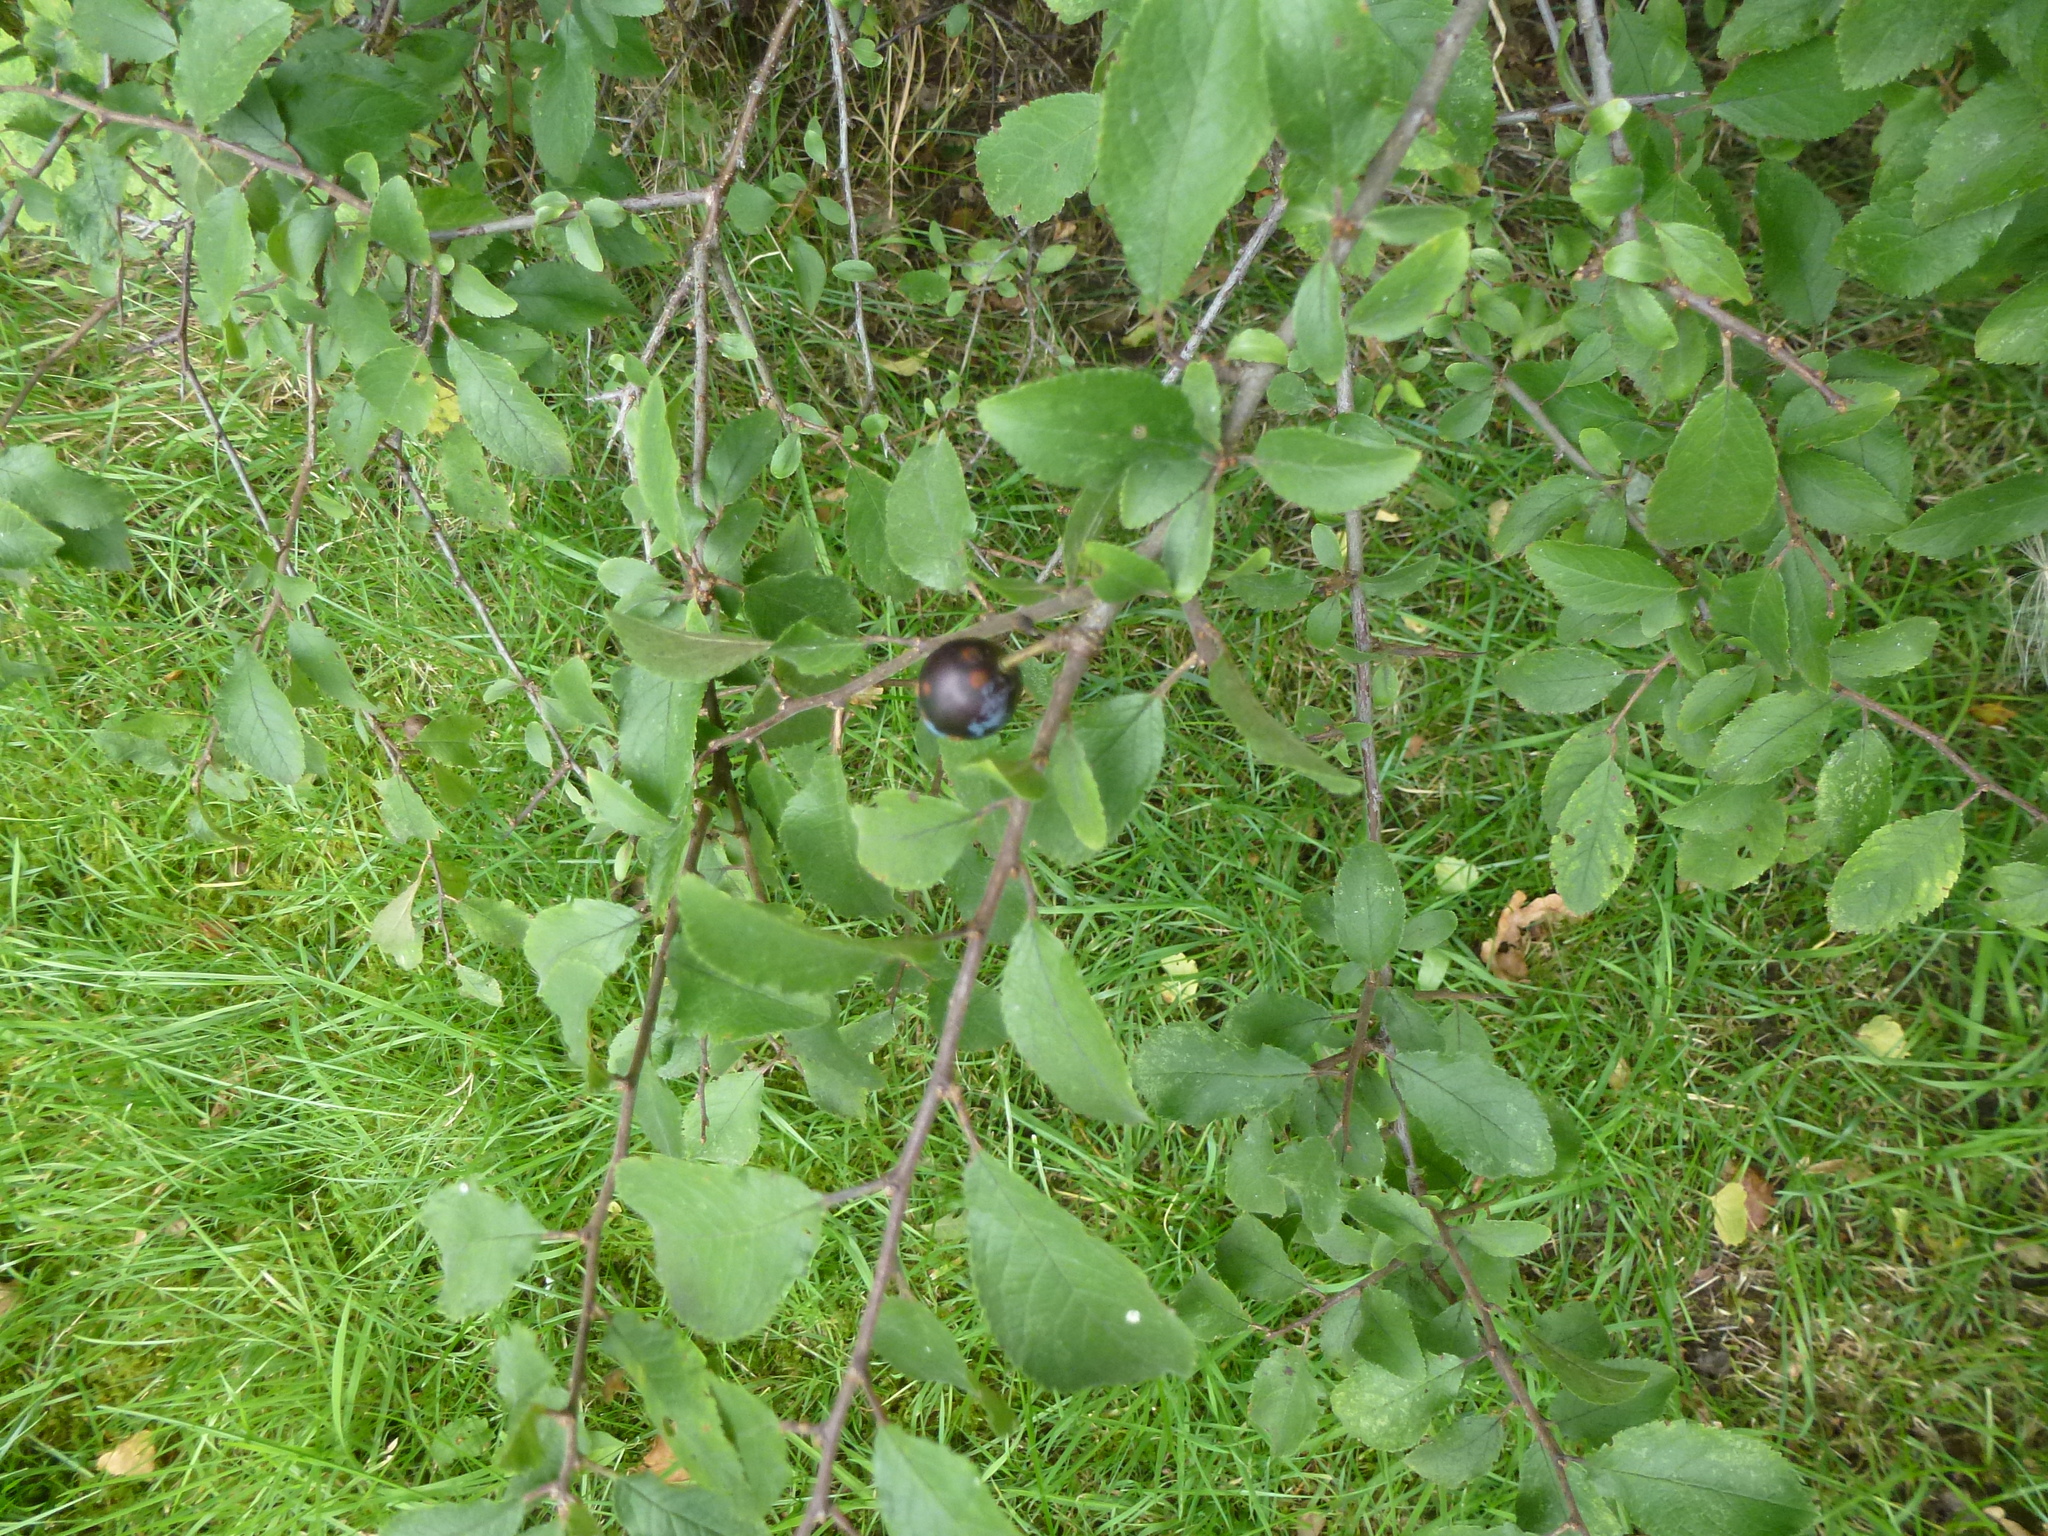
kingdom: Plantae
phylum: Tracheophyta
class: Magnoliopsida
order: Rosales
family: Rosaceae
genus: Prunus
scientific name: Prunus spinosa
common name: Blackthorn
